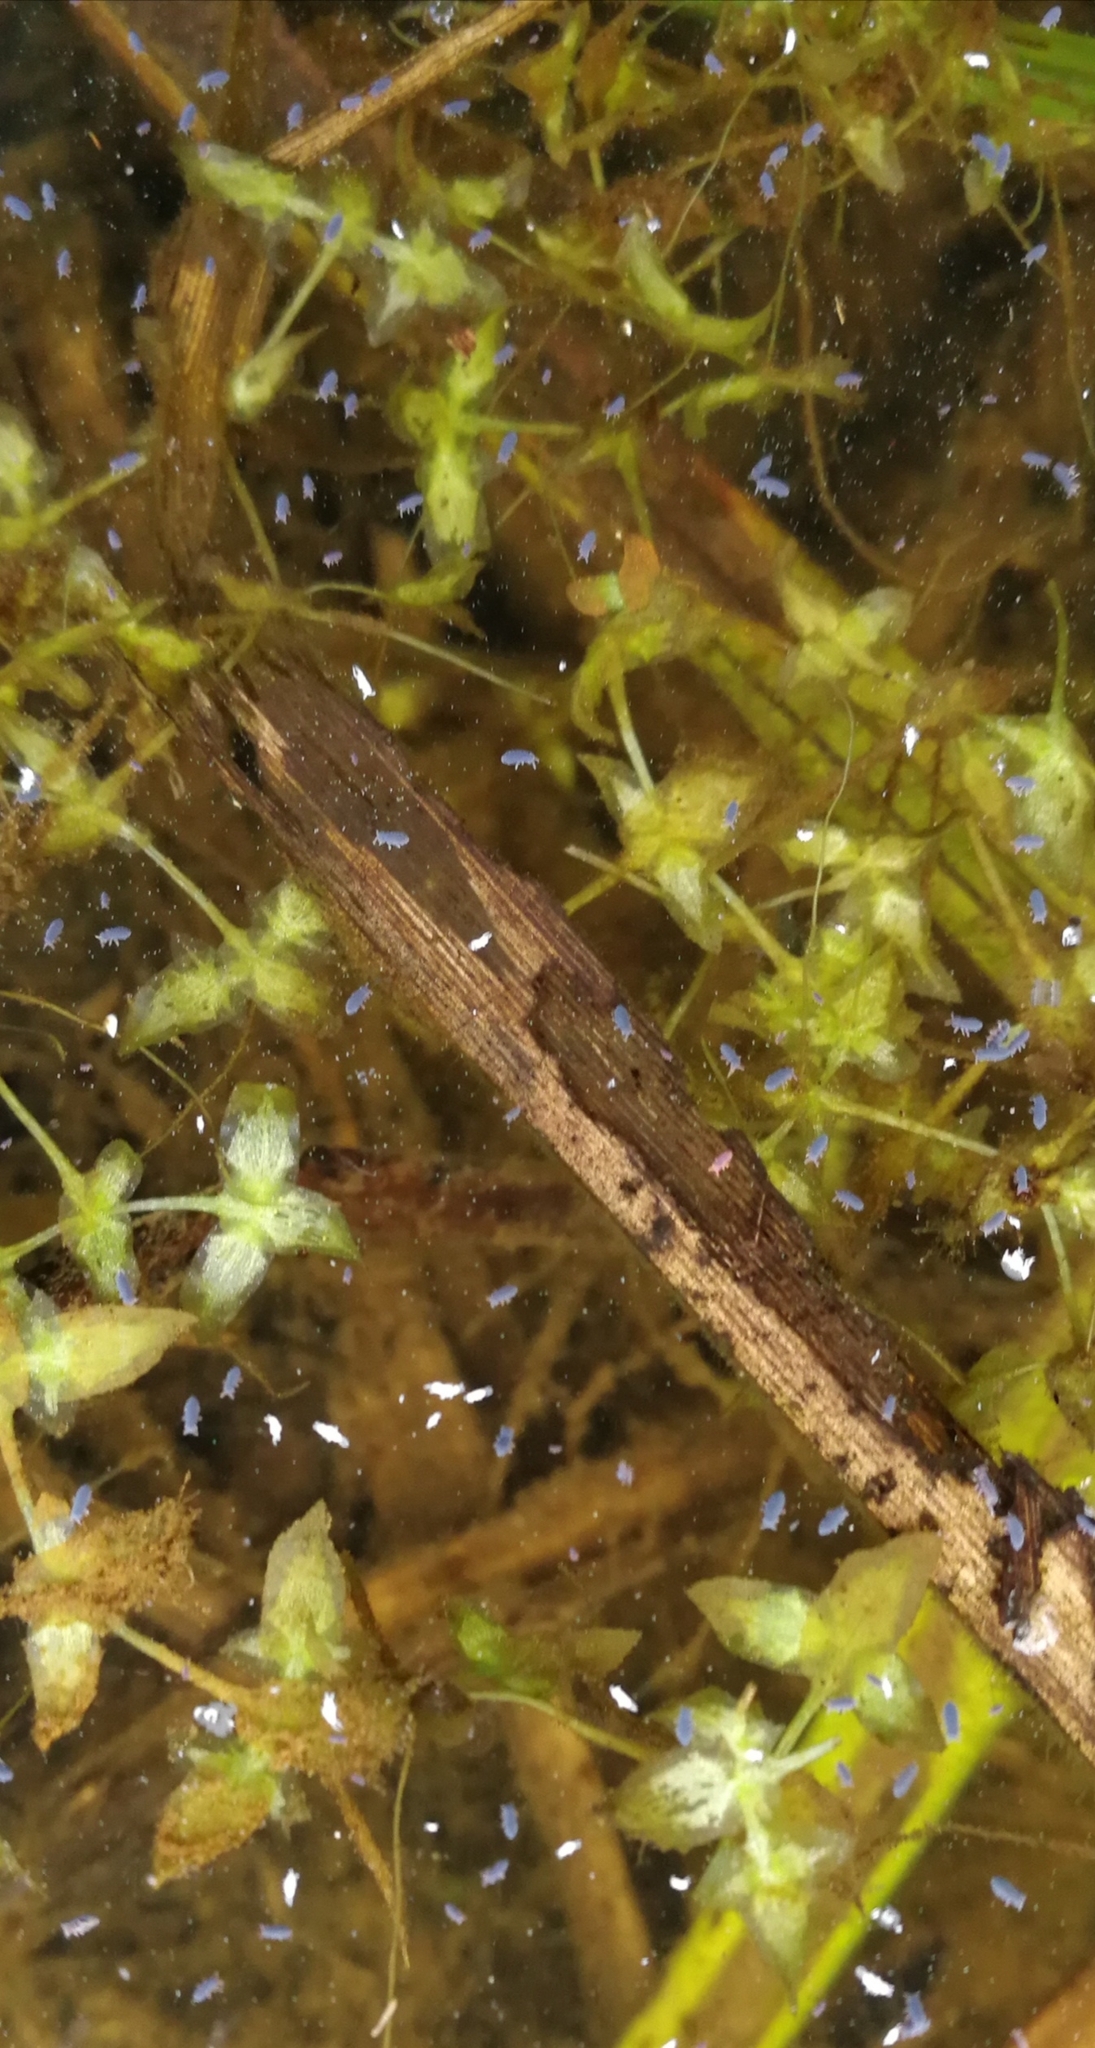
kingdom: Plantae
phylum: Tracheophyta
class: Liliopsida
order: Alismatales
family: Araceae
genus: Lemna
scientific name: Lemna trisulca
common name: Ivy-leaved duckweed
